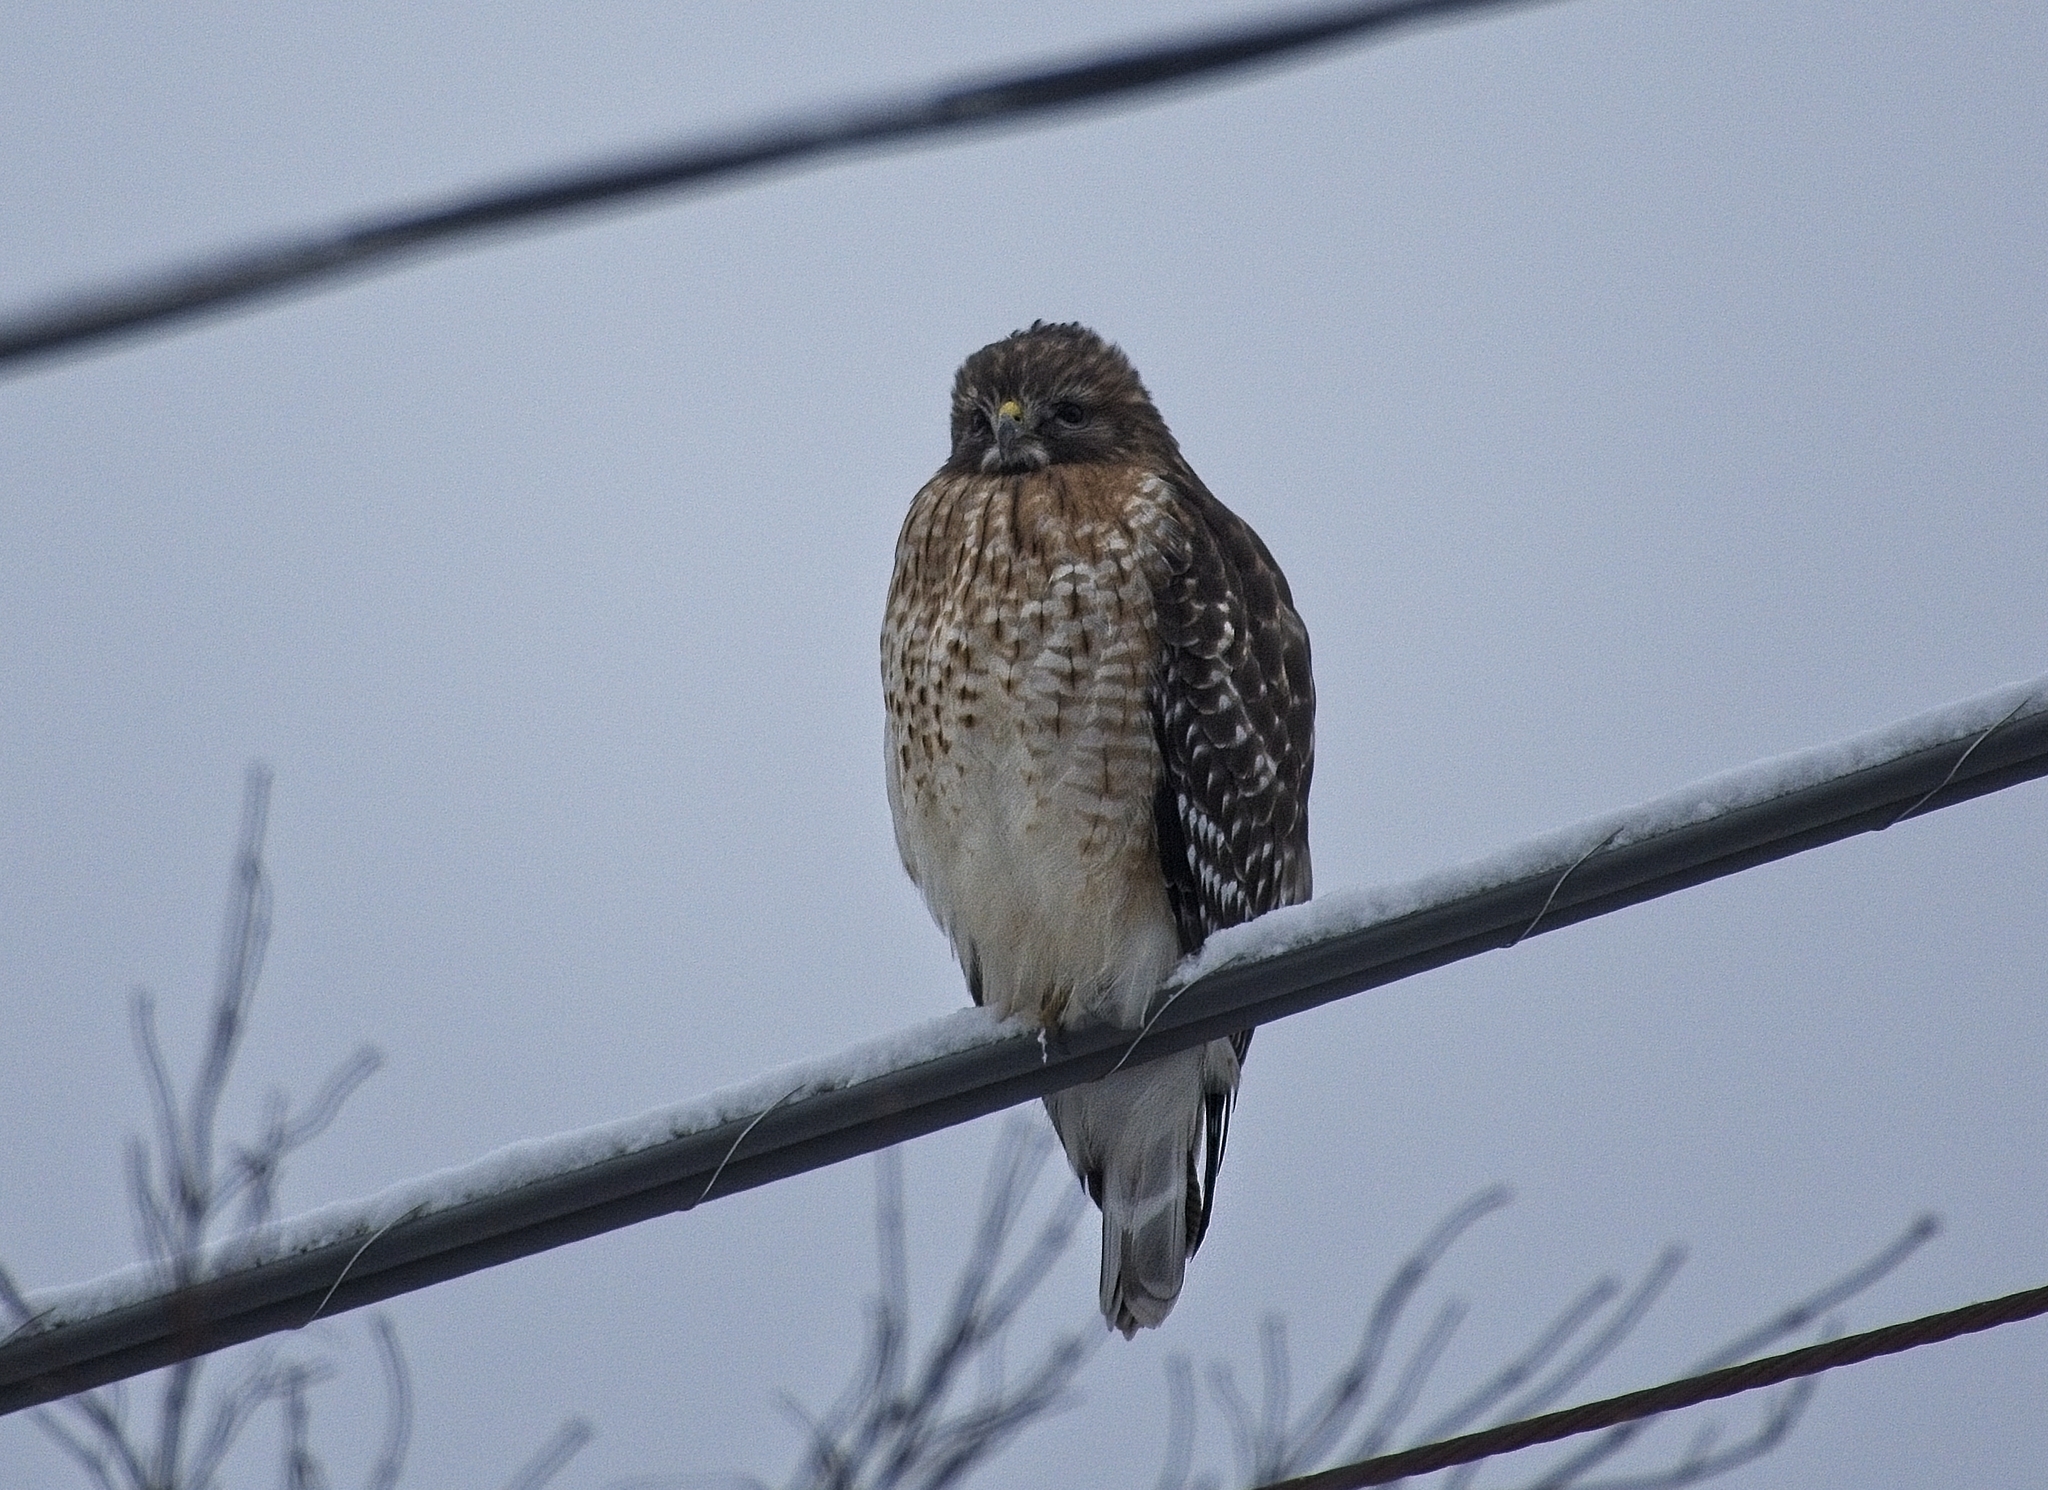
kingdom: Animalia
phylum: Chordata
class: Aves
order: Accipitriformes
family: Accipitridae
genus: Buteo
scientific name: Buteo lineatus
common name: Red-shouldered hawk
